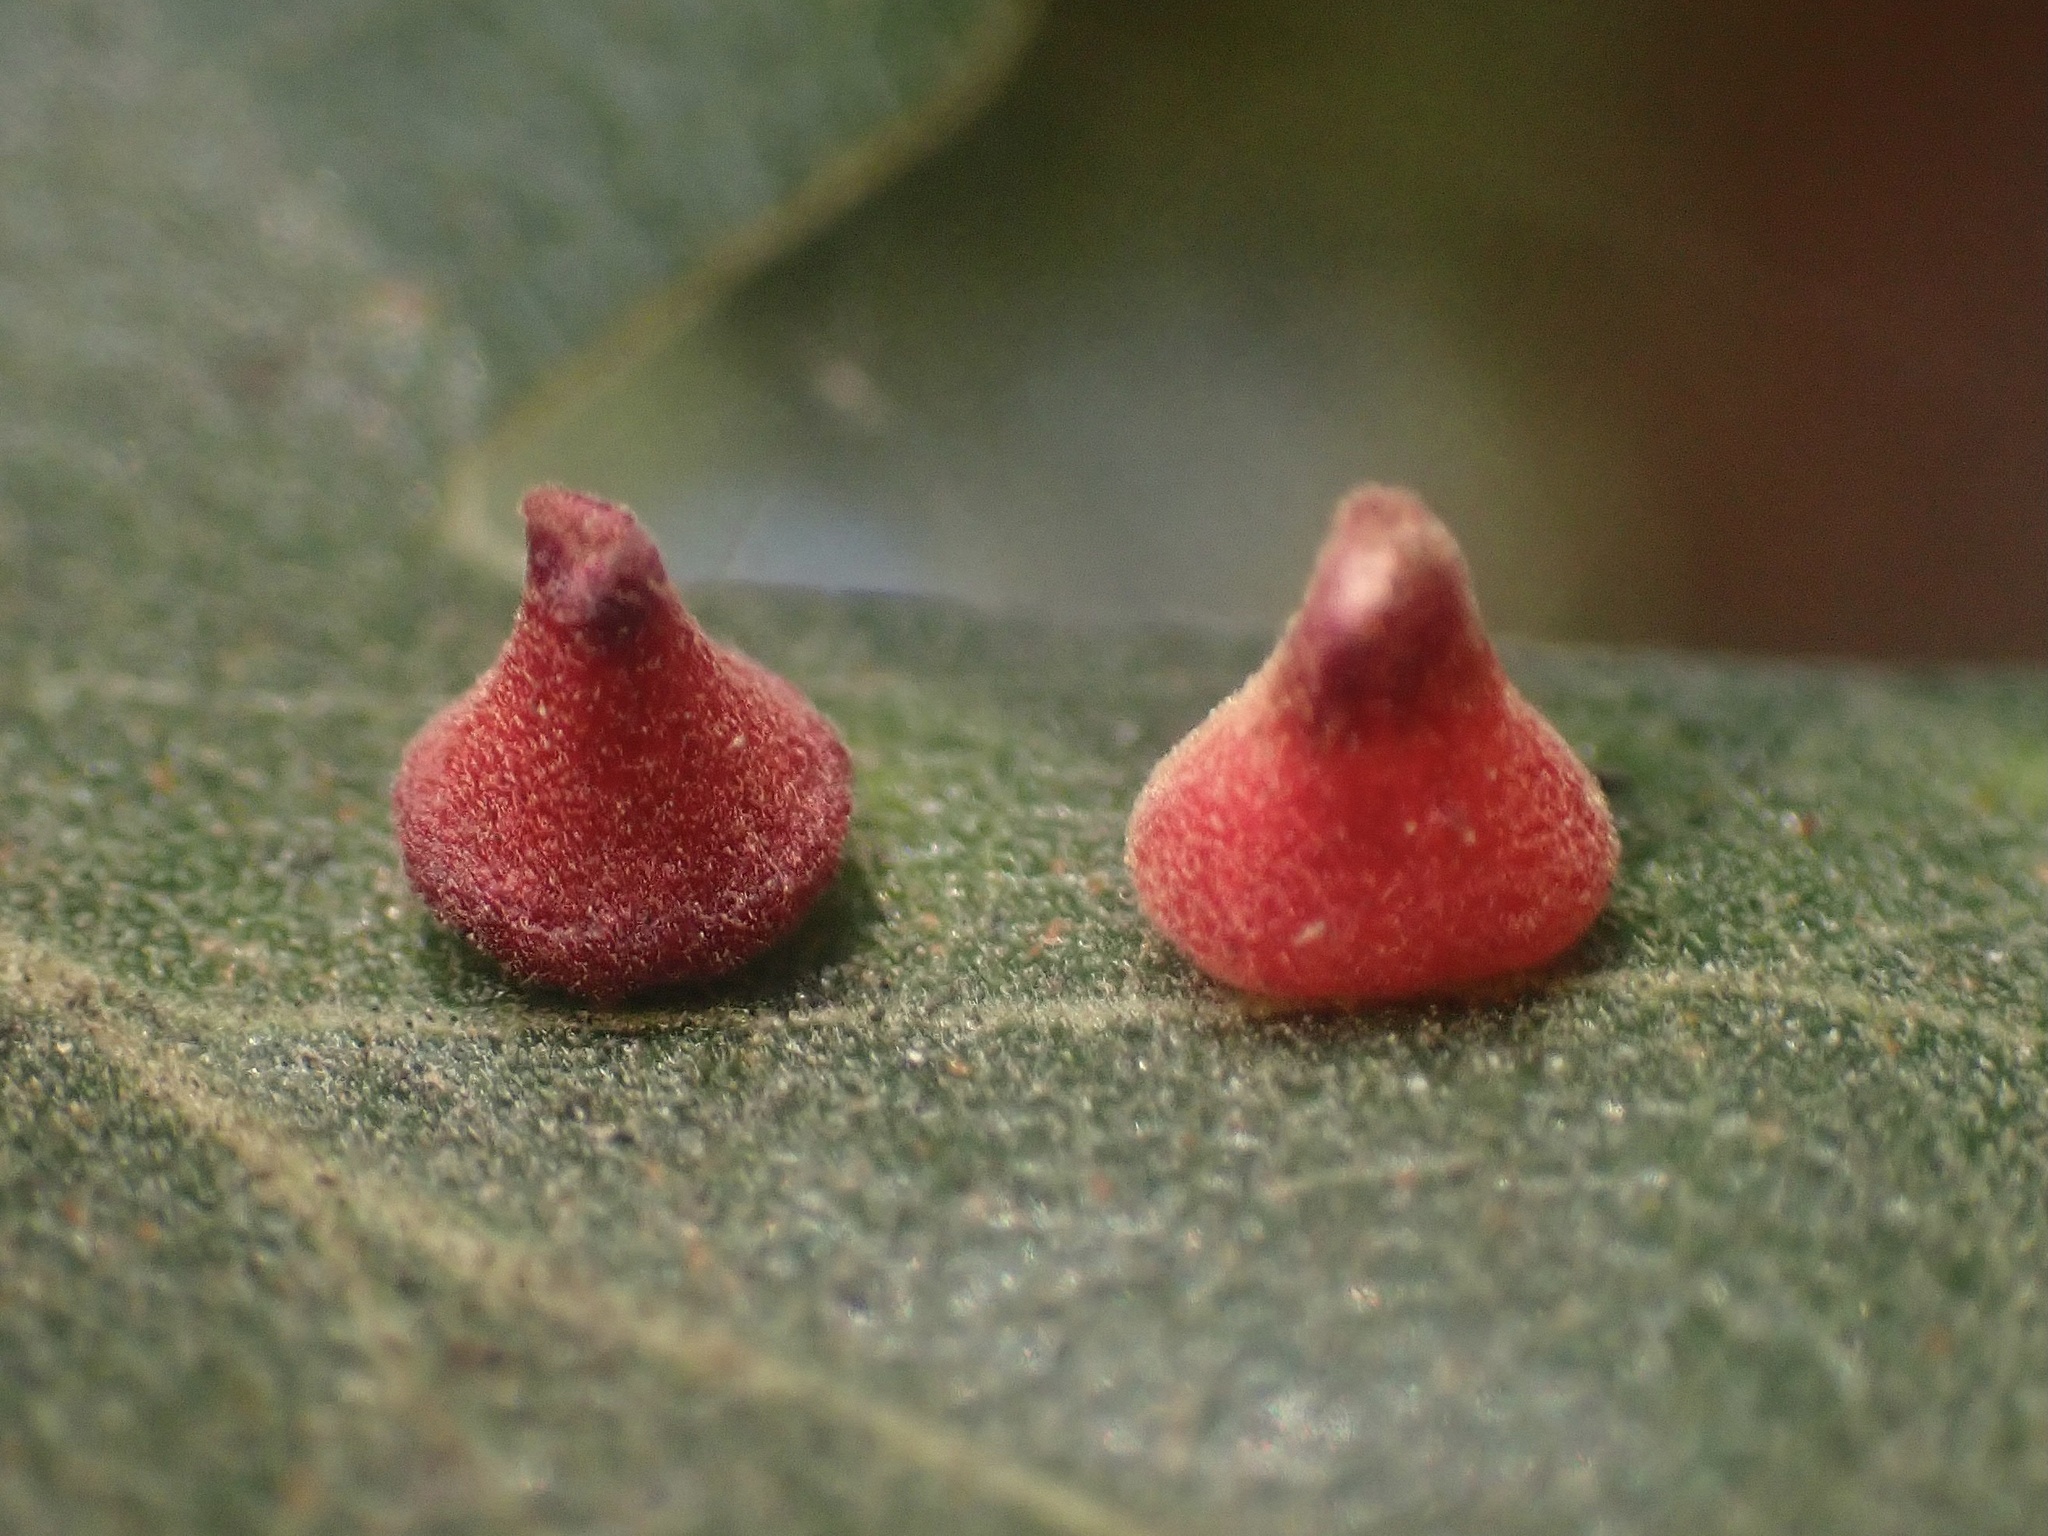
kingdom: Animalia
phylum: Arthropoda
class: Insecta
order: Hymenoptera
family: Cynipidae
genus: Andricus
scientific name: Andricus
